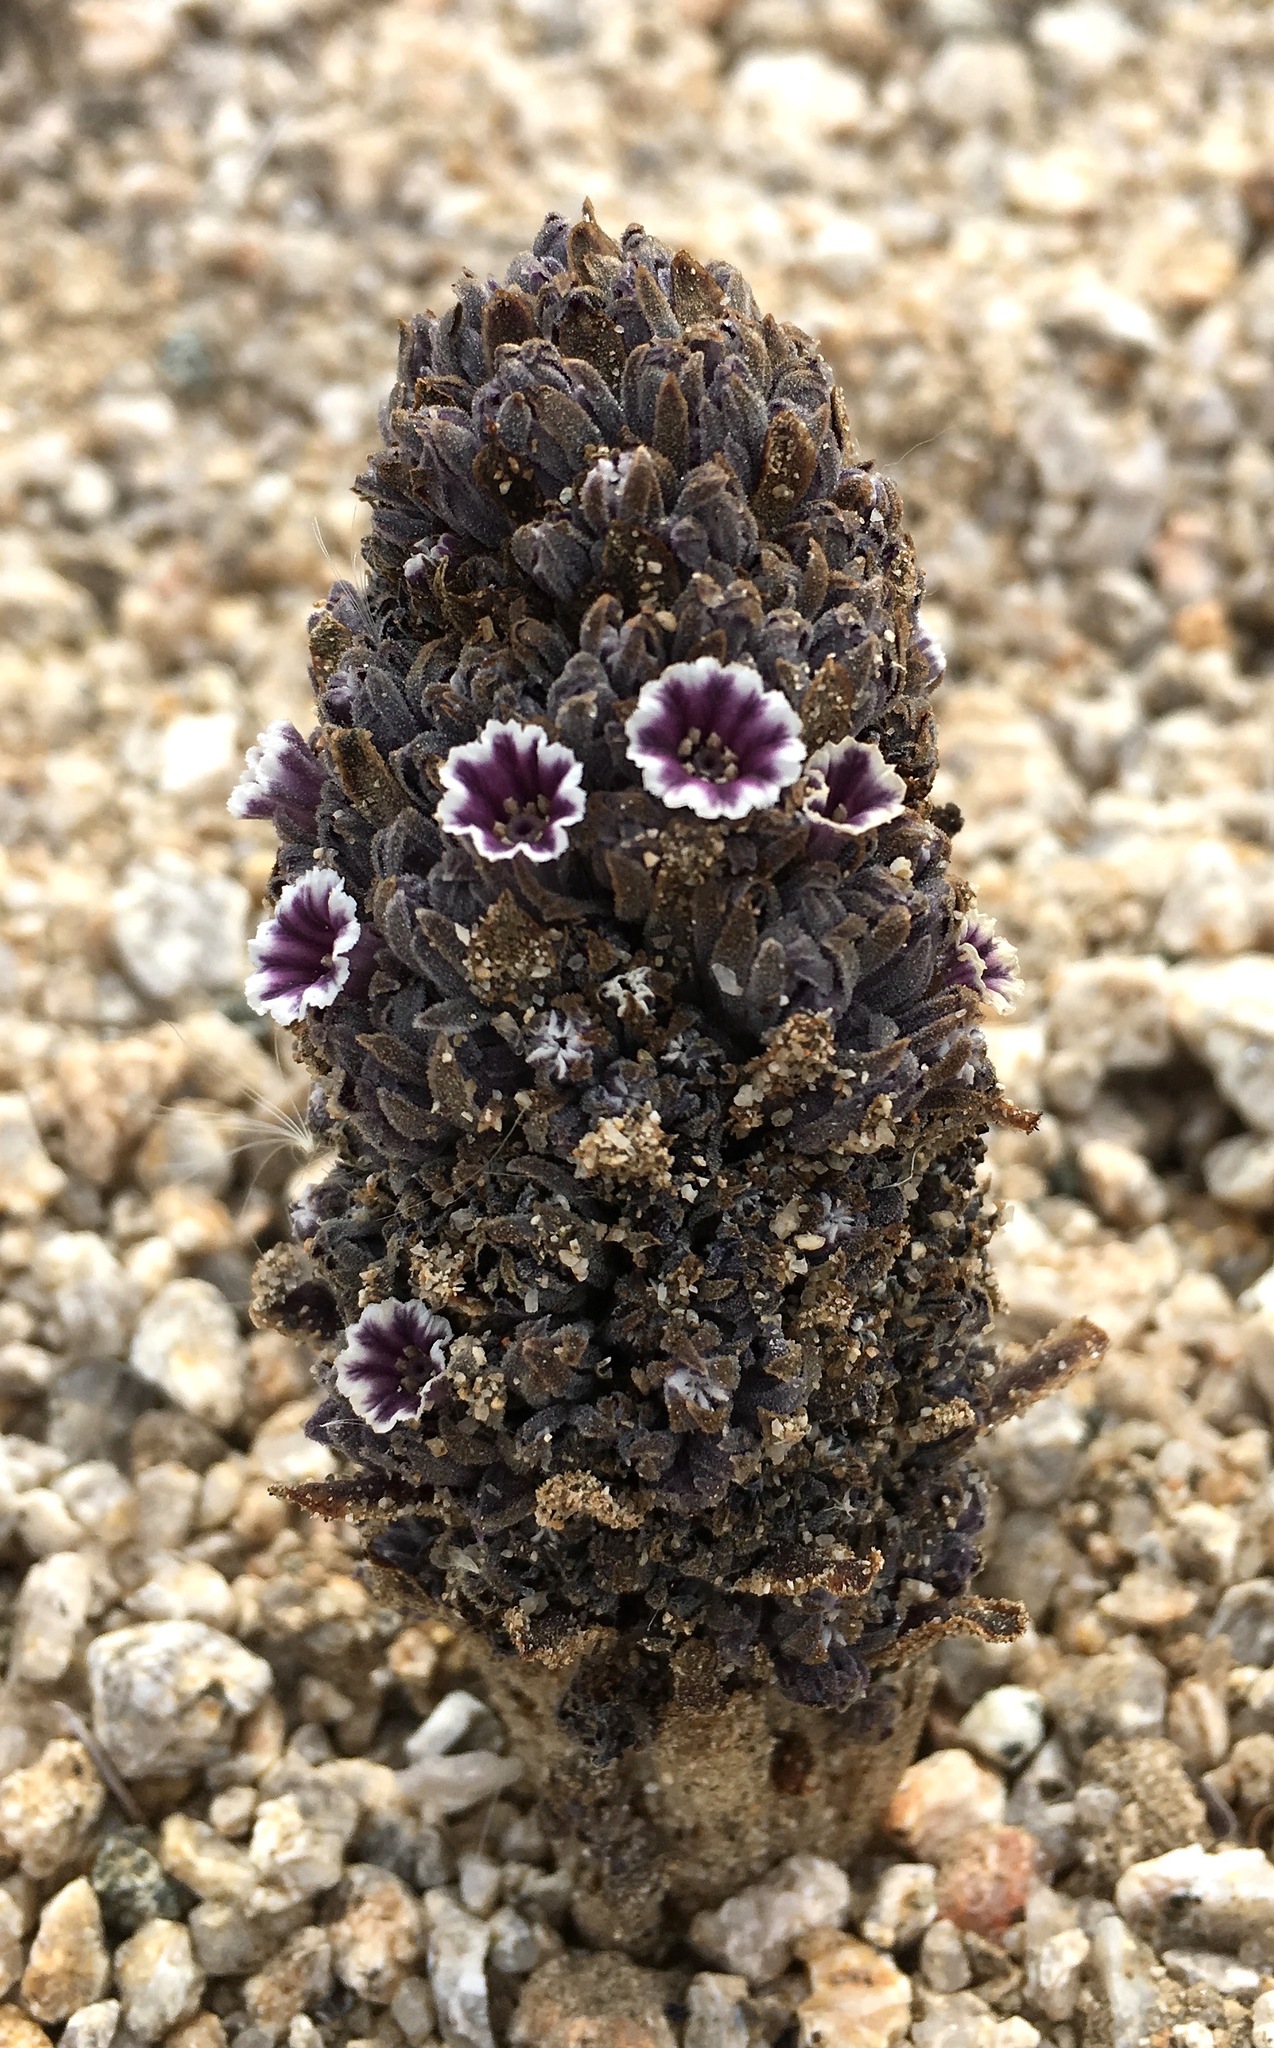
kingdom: Plantae
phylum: Tracheophyta
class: Magnoliopsida
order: Boraginales
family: Lennoaceae
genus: Pholisma
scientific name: Pholisma arenarium
